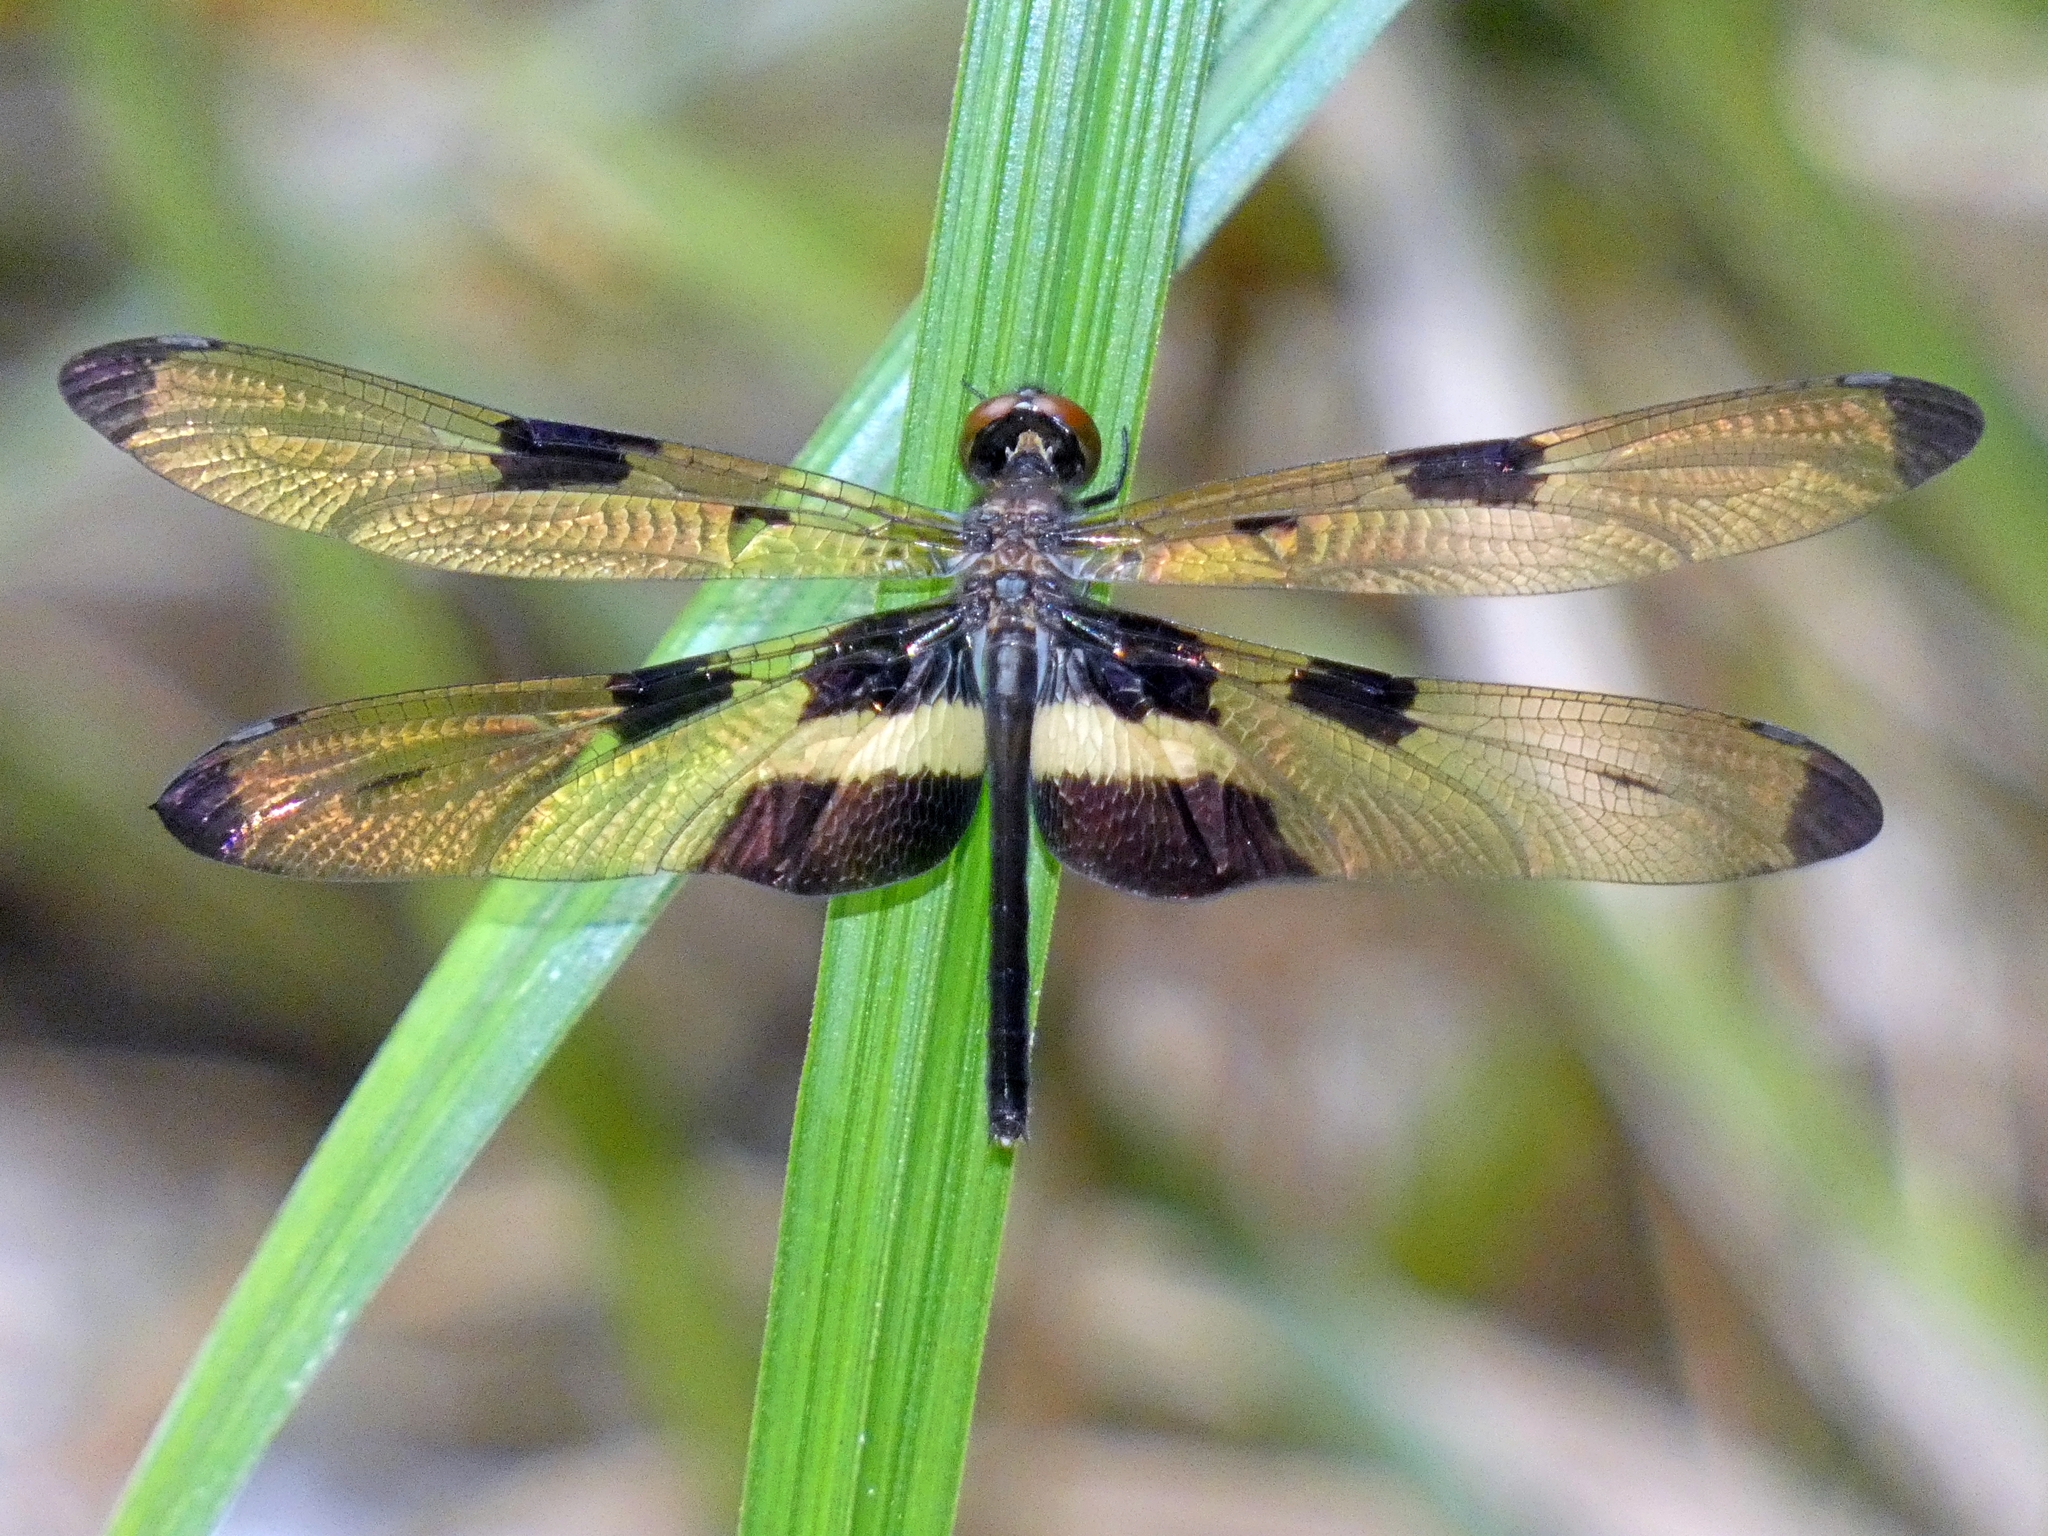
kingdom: Animalia
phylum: Arthropoda
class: Insecta
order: Odonata
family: Libellulidae
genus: Rhyothemis
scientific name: Rhyothemis phyllis
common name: Yellow-barred flutterer
